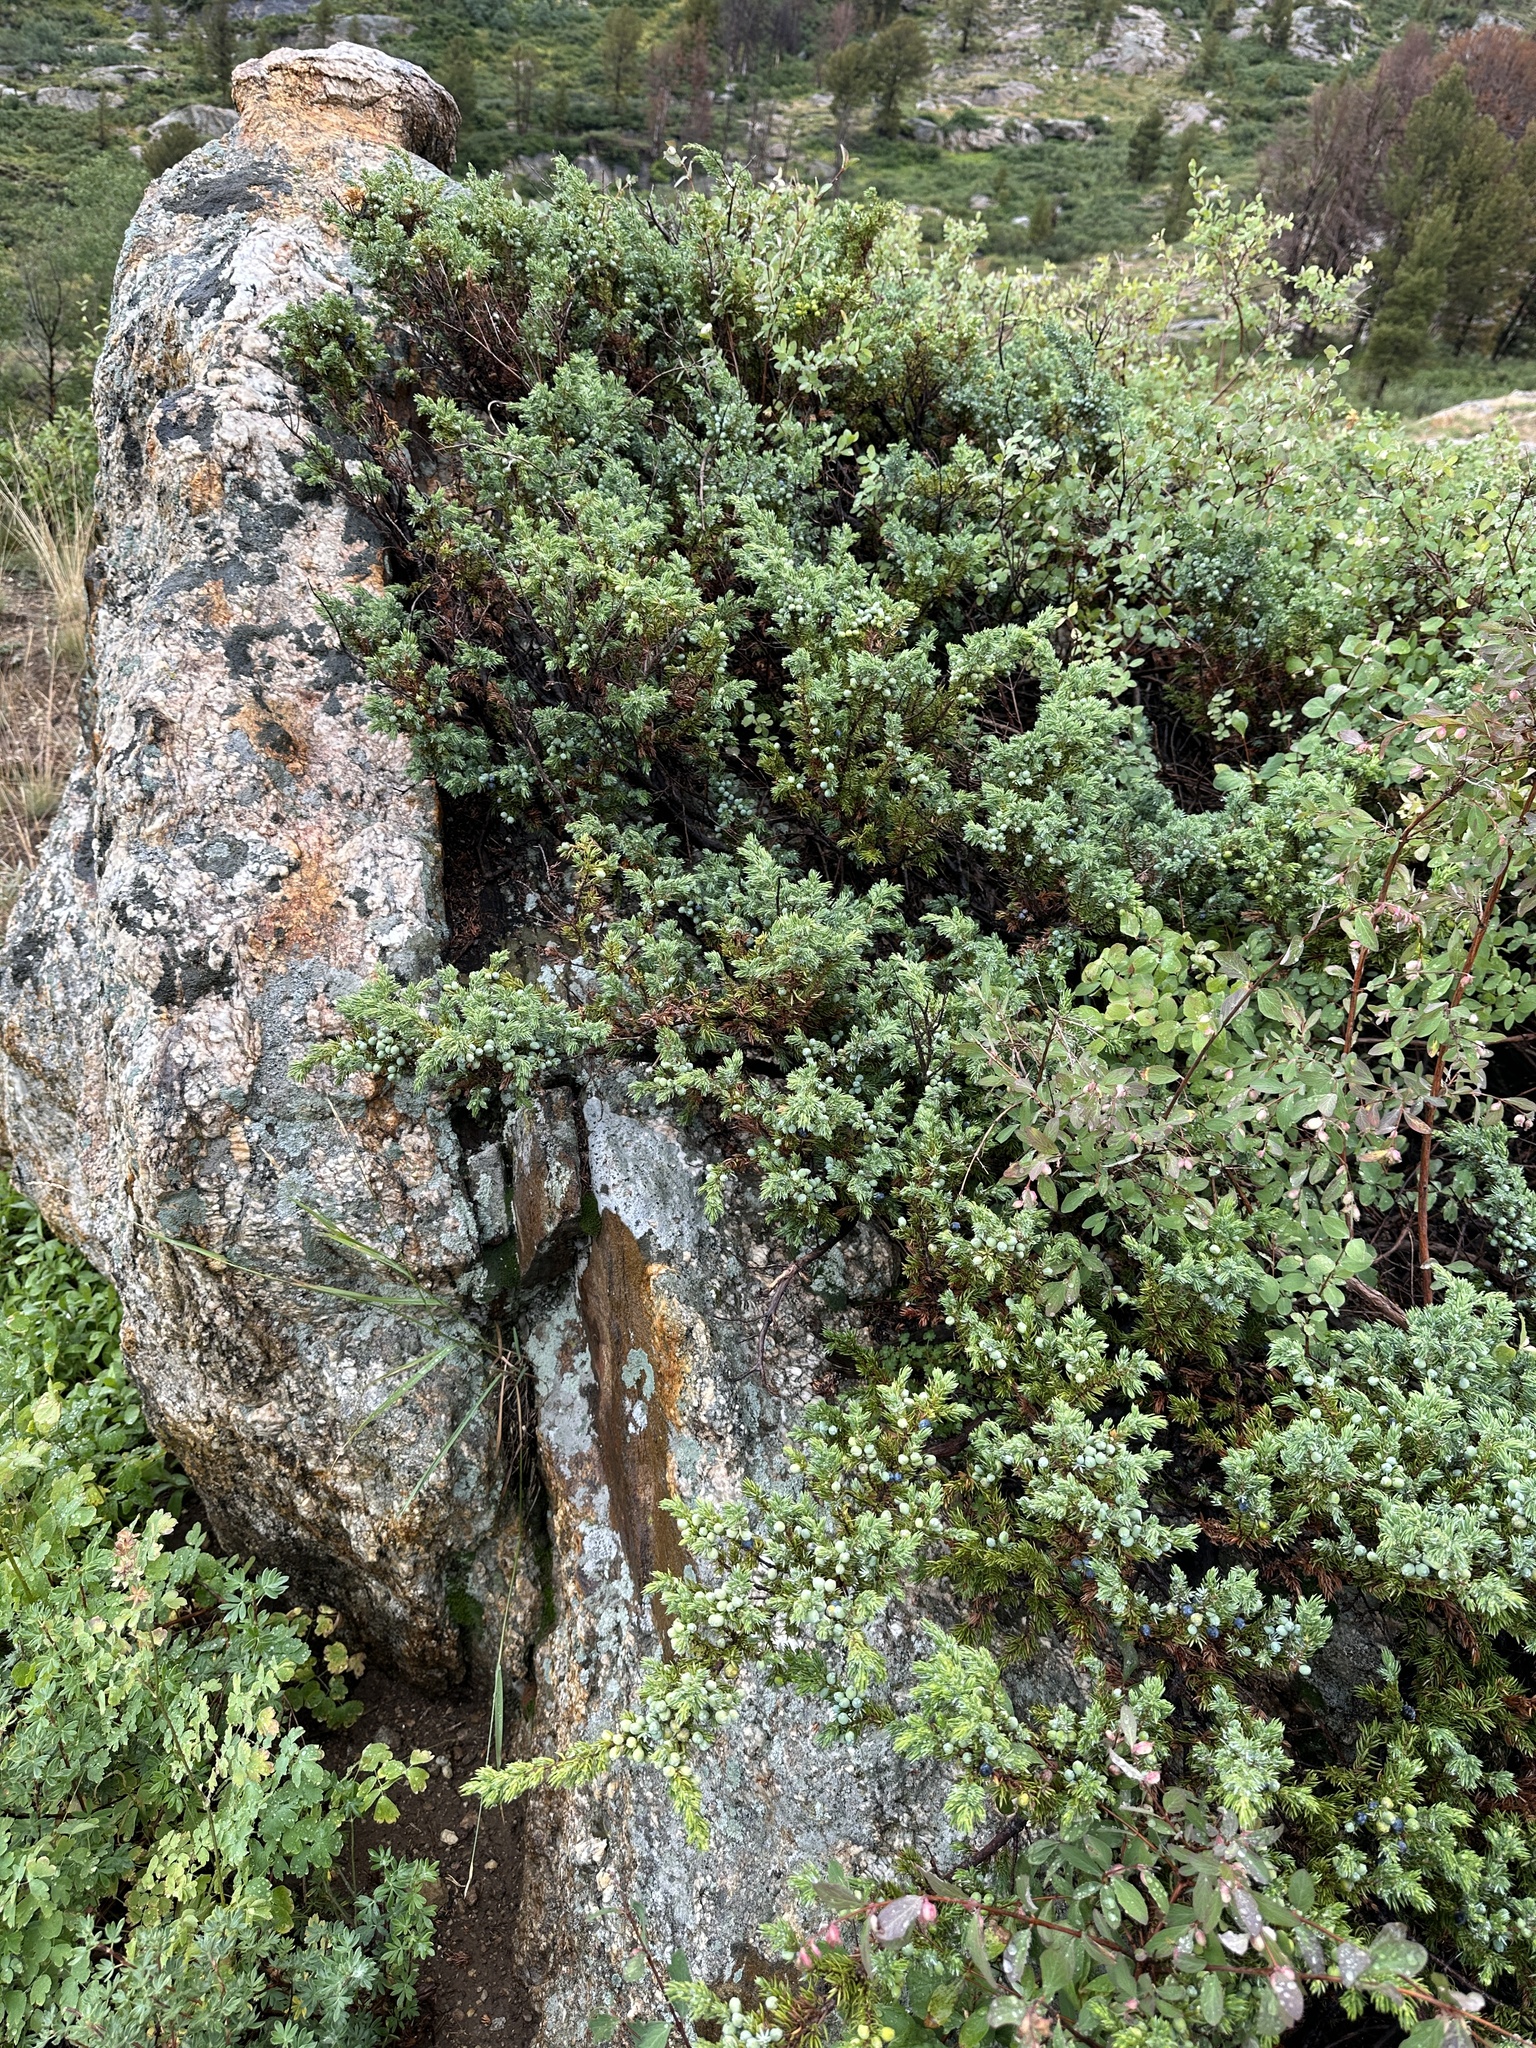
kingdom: Plantae
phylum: Tracheophyta
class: Pinopsida
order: Pinales
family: Cupressaceae
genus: Juniperus
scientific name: Juniperus communis
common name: Common juniper
